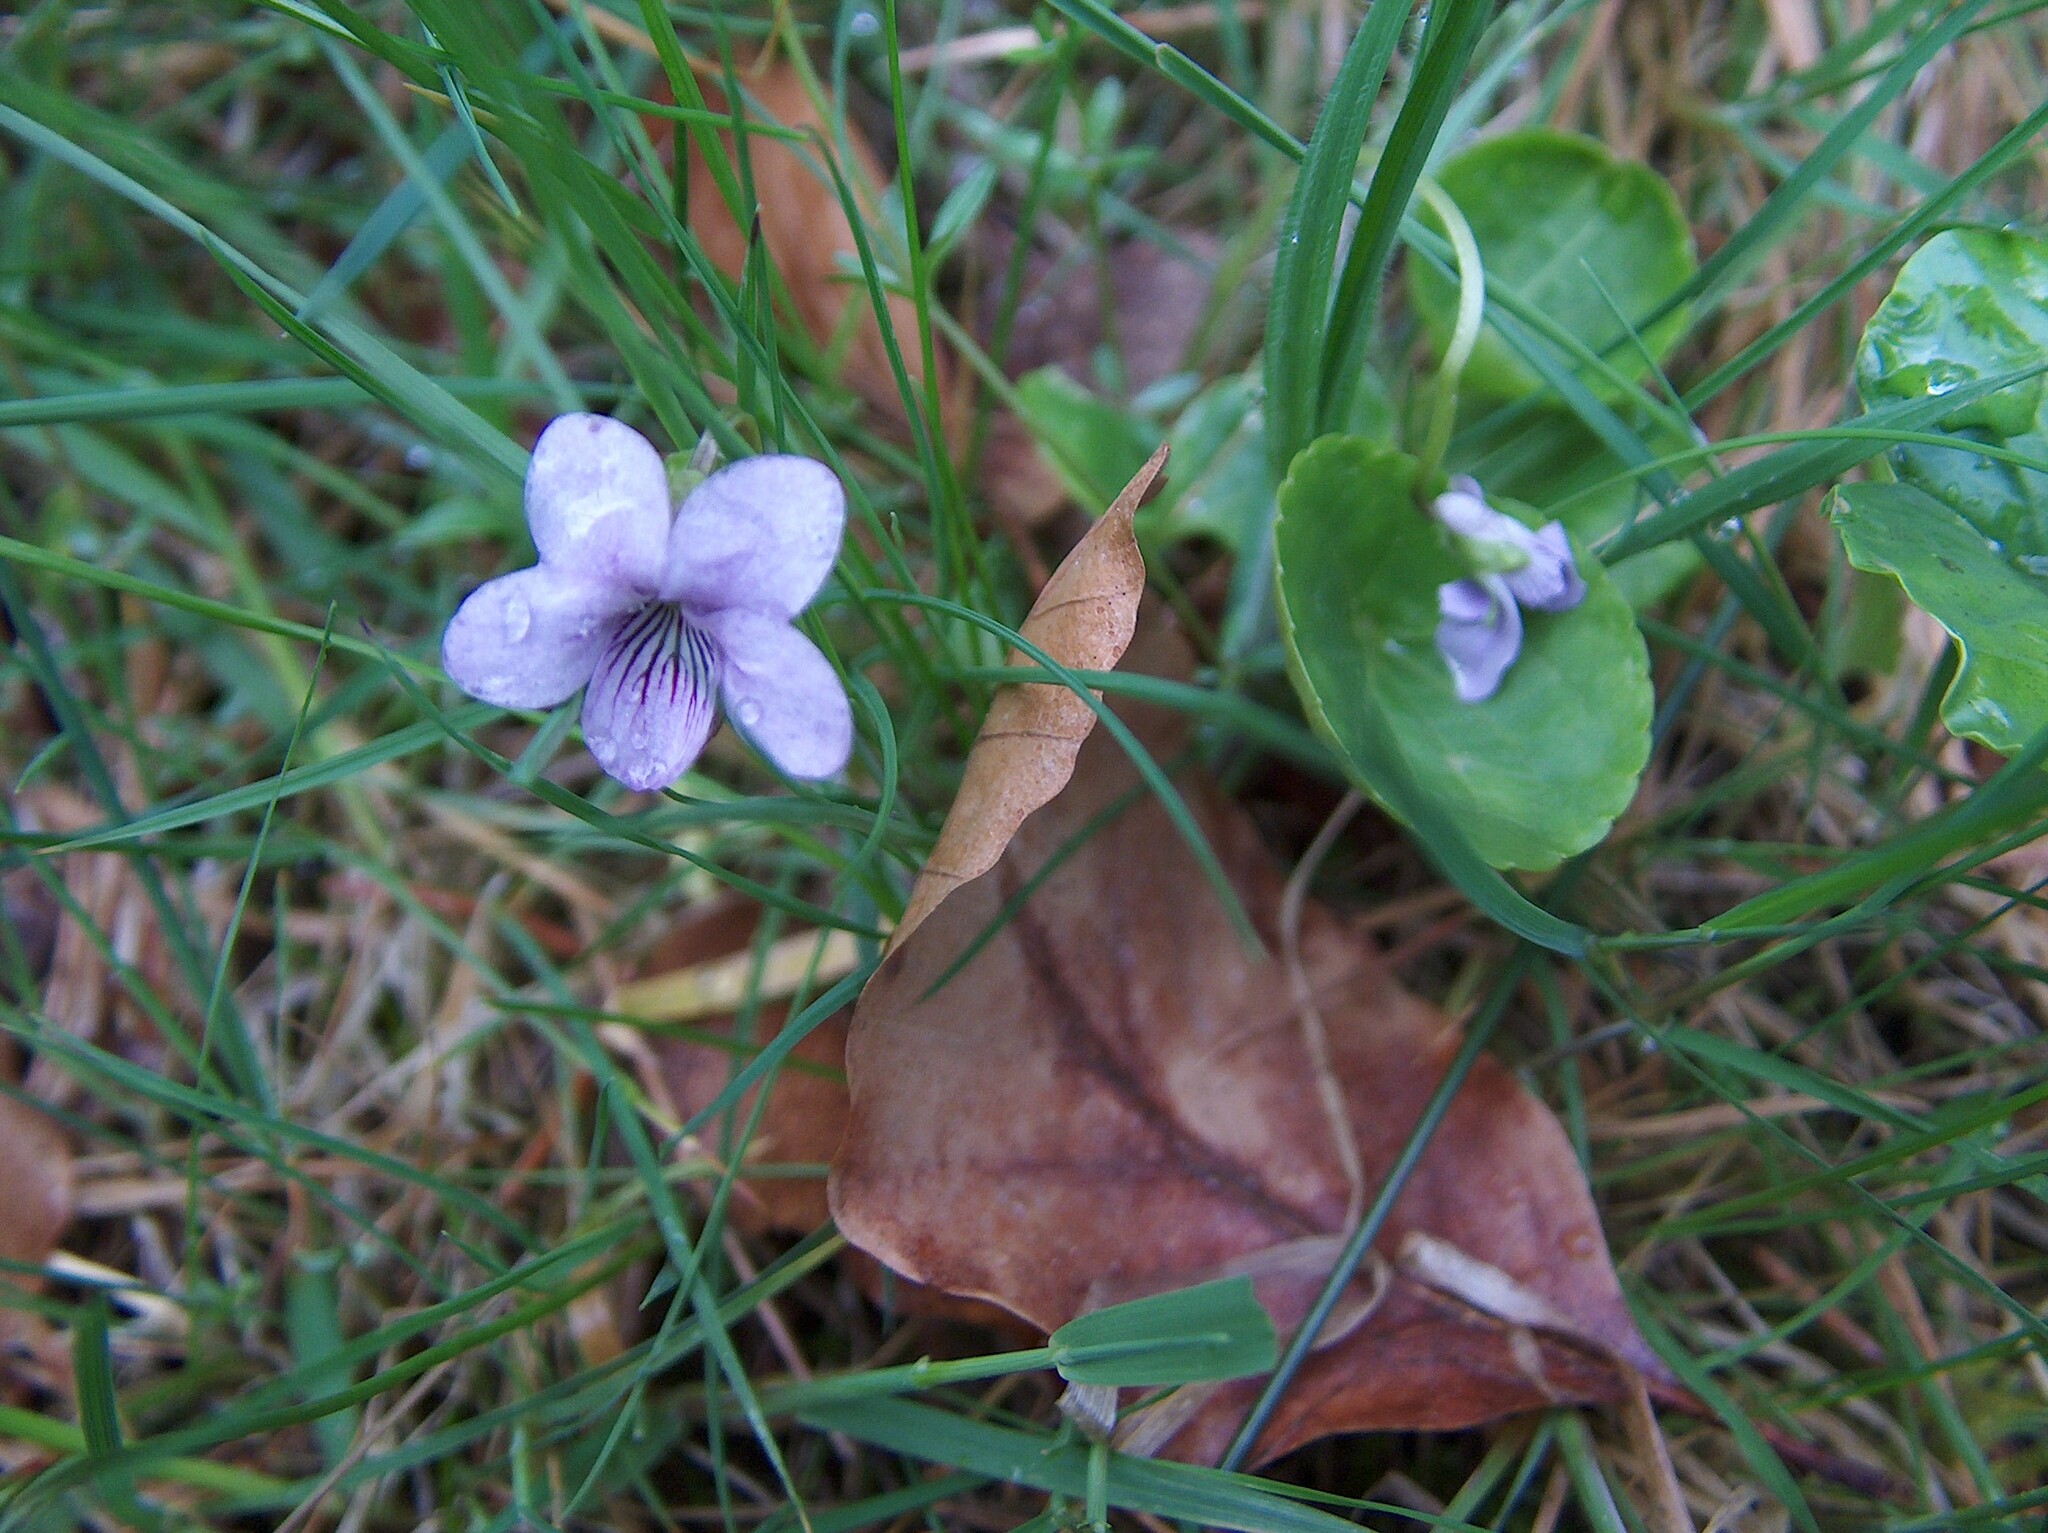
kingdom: Plantae
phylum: Tracheophyta
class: Magnoliopsida
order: Malpighiales
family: Violaceae
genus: Viola
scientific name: Viola palustris
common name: Marsh violet
